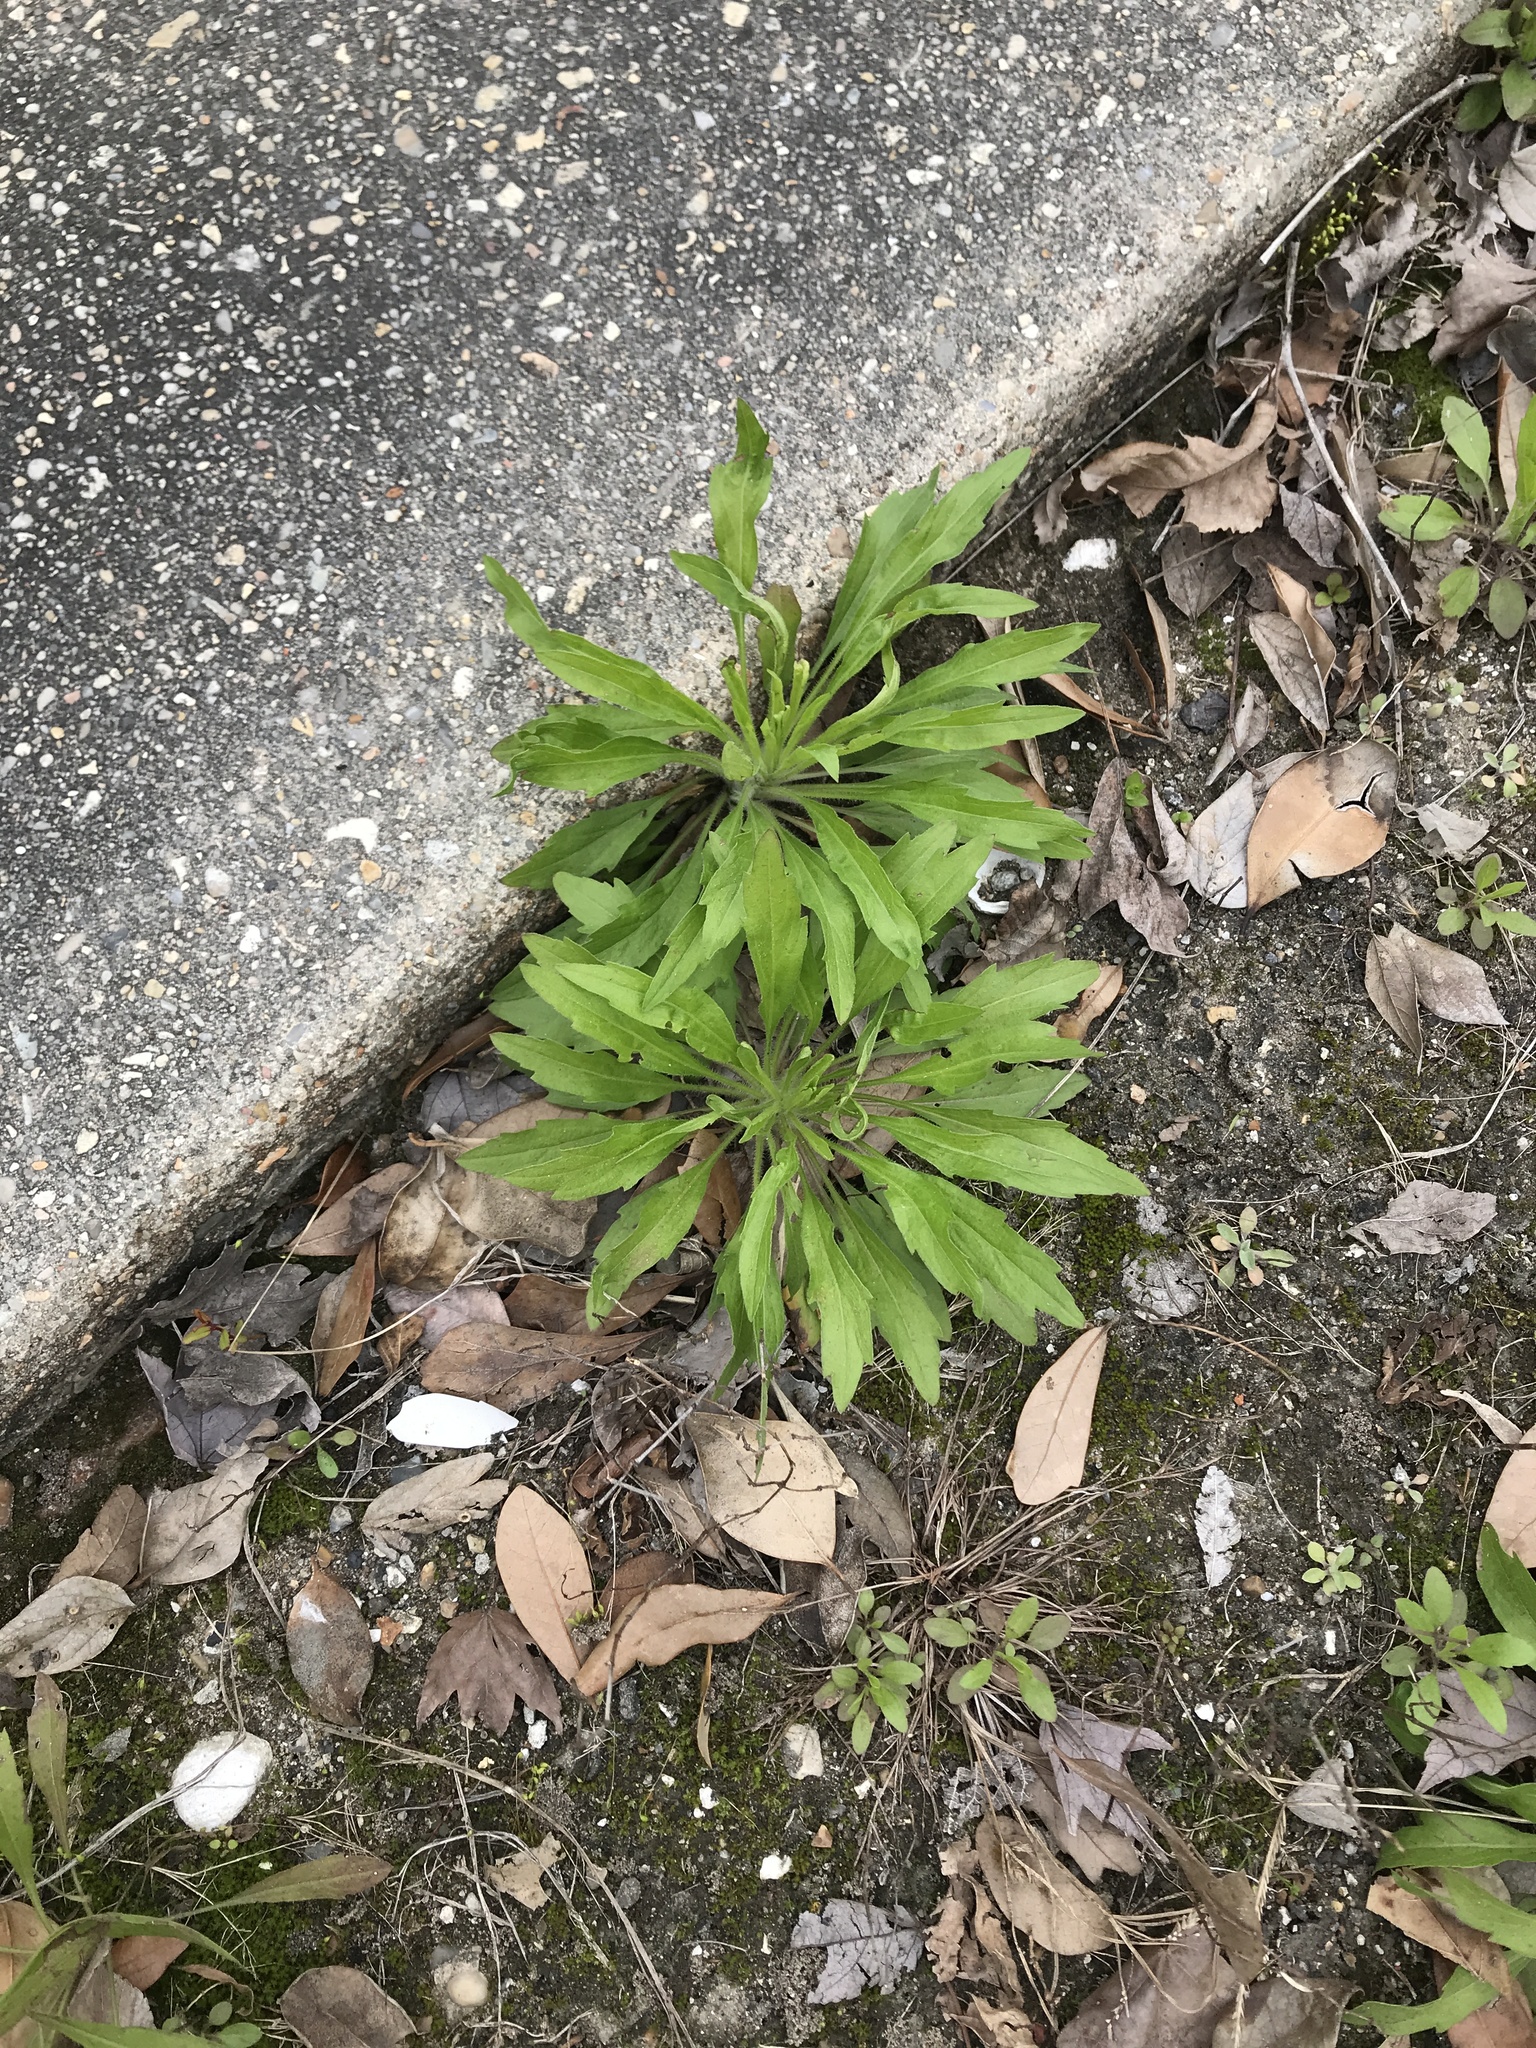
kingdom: Plantae
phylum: Tracheophyta
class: Magnoliopsida
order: Asterales
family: Asteraceae
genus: Erigeron
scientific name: Erigeron canadensis
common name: Canadian fleabane
